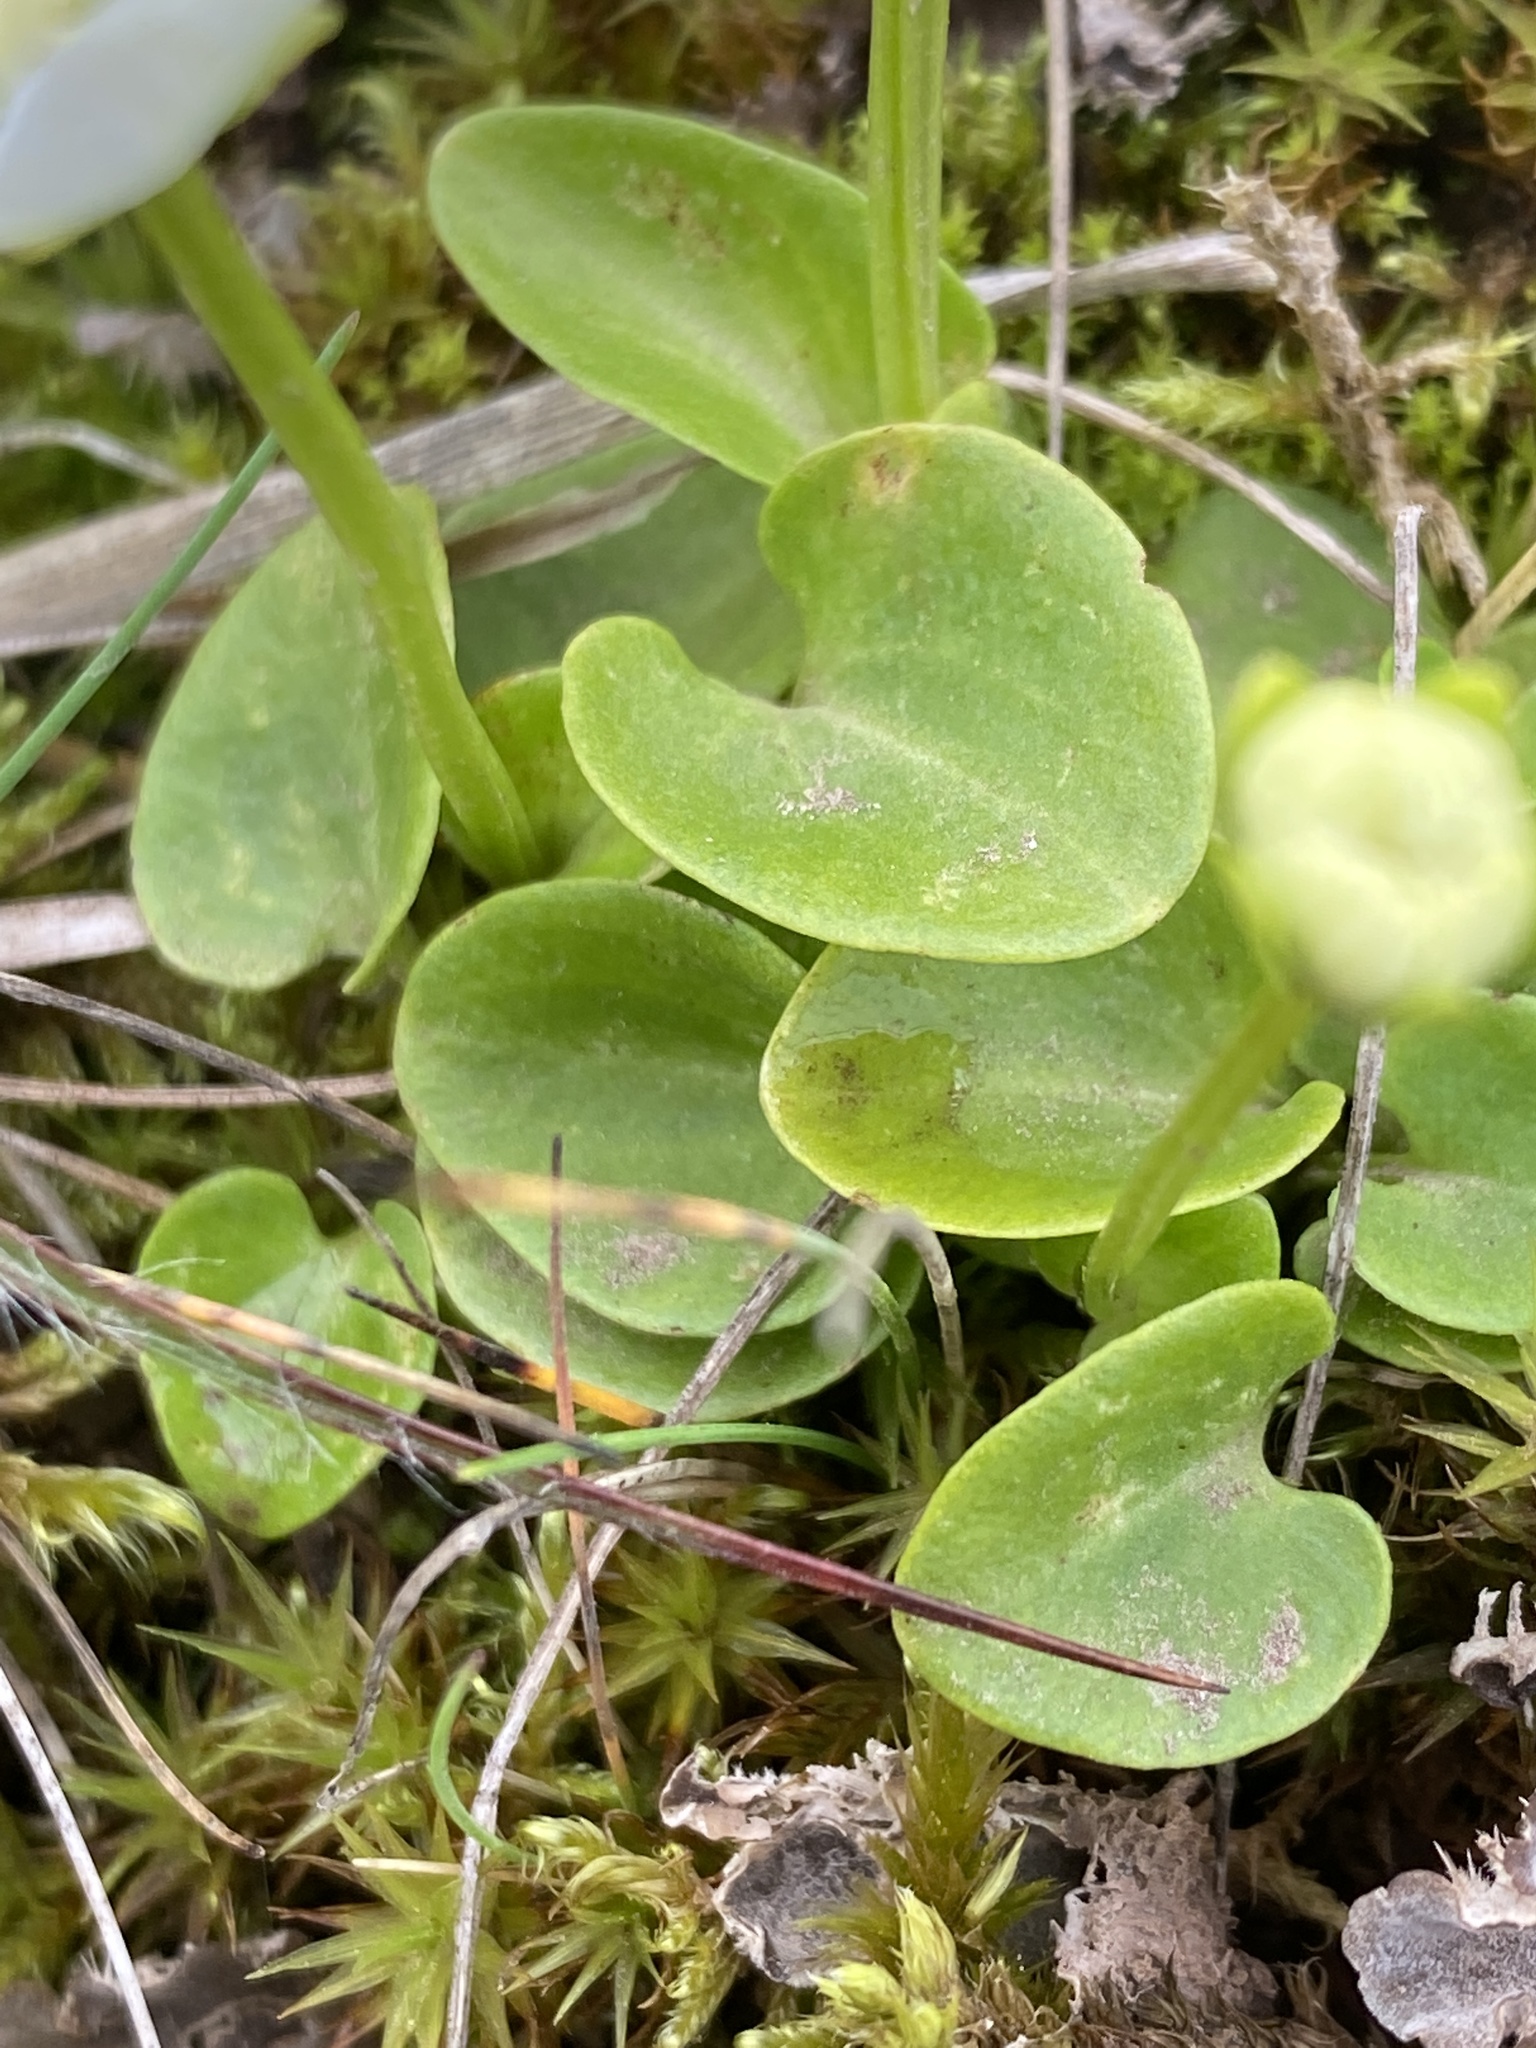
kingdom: Plantae
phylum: Tracheophyta
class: Magnoliopsida
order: Celastrales
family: Parnassiaceae
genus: Parnassia
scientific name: Parnassia palustris
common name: Grass-of-parnassus
